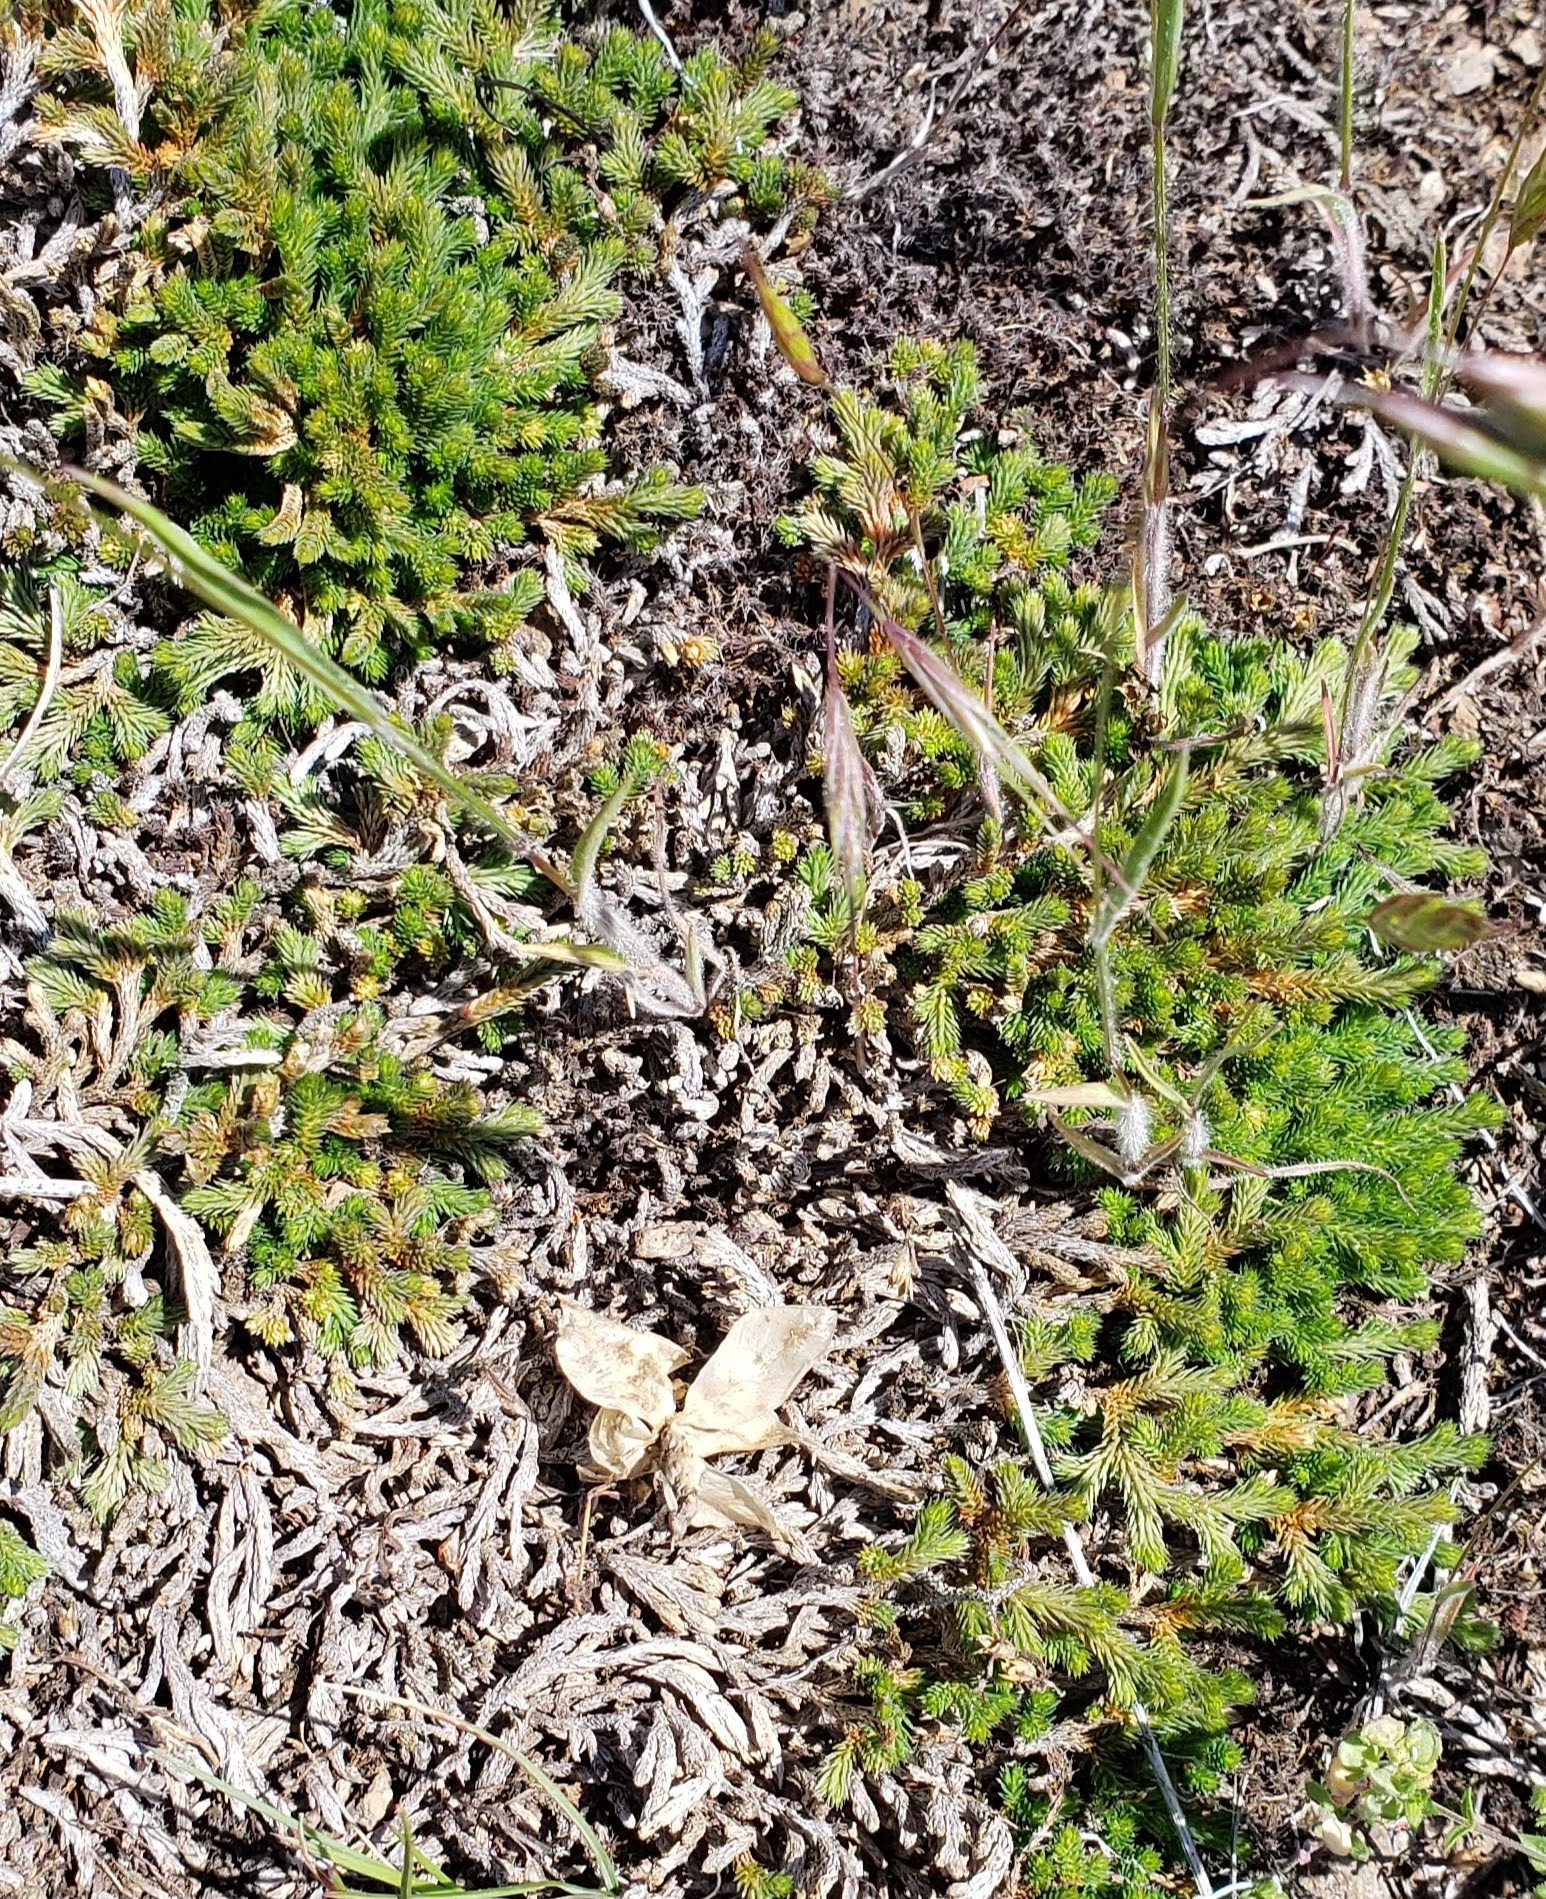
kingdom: Plantae
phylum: Tracheophyta
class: Lycopodiopsida
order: Selaginellales
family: Selaginellaceae
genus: Selaginella
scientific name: Selaginella wallacei
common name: Wallace's selaginella
